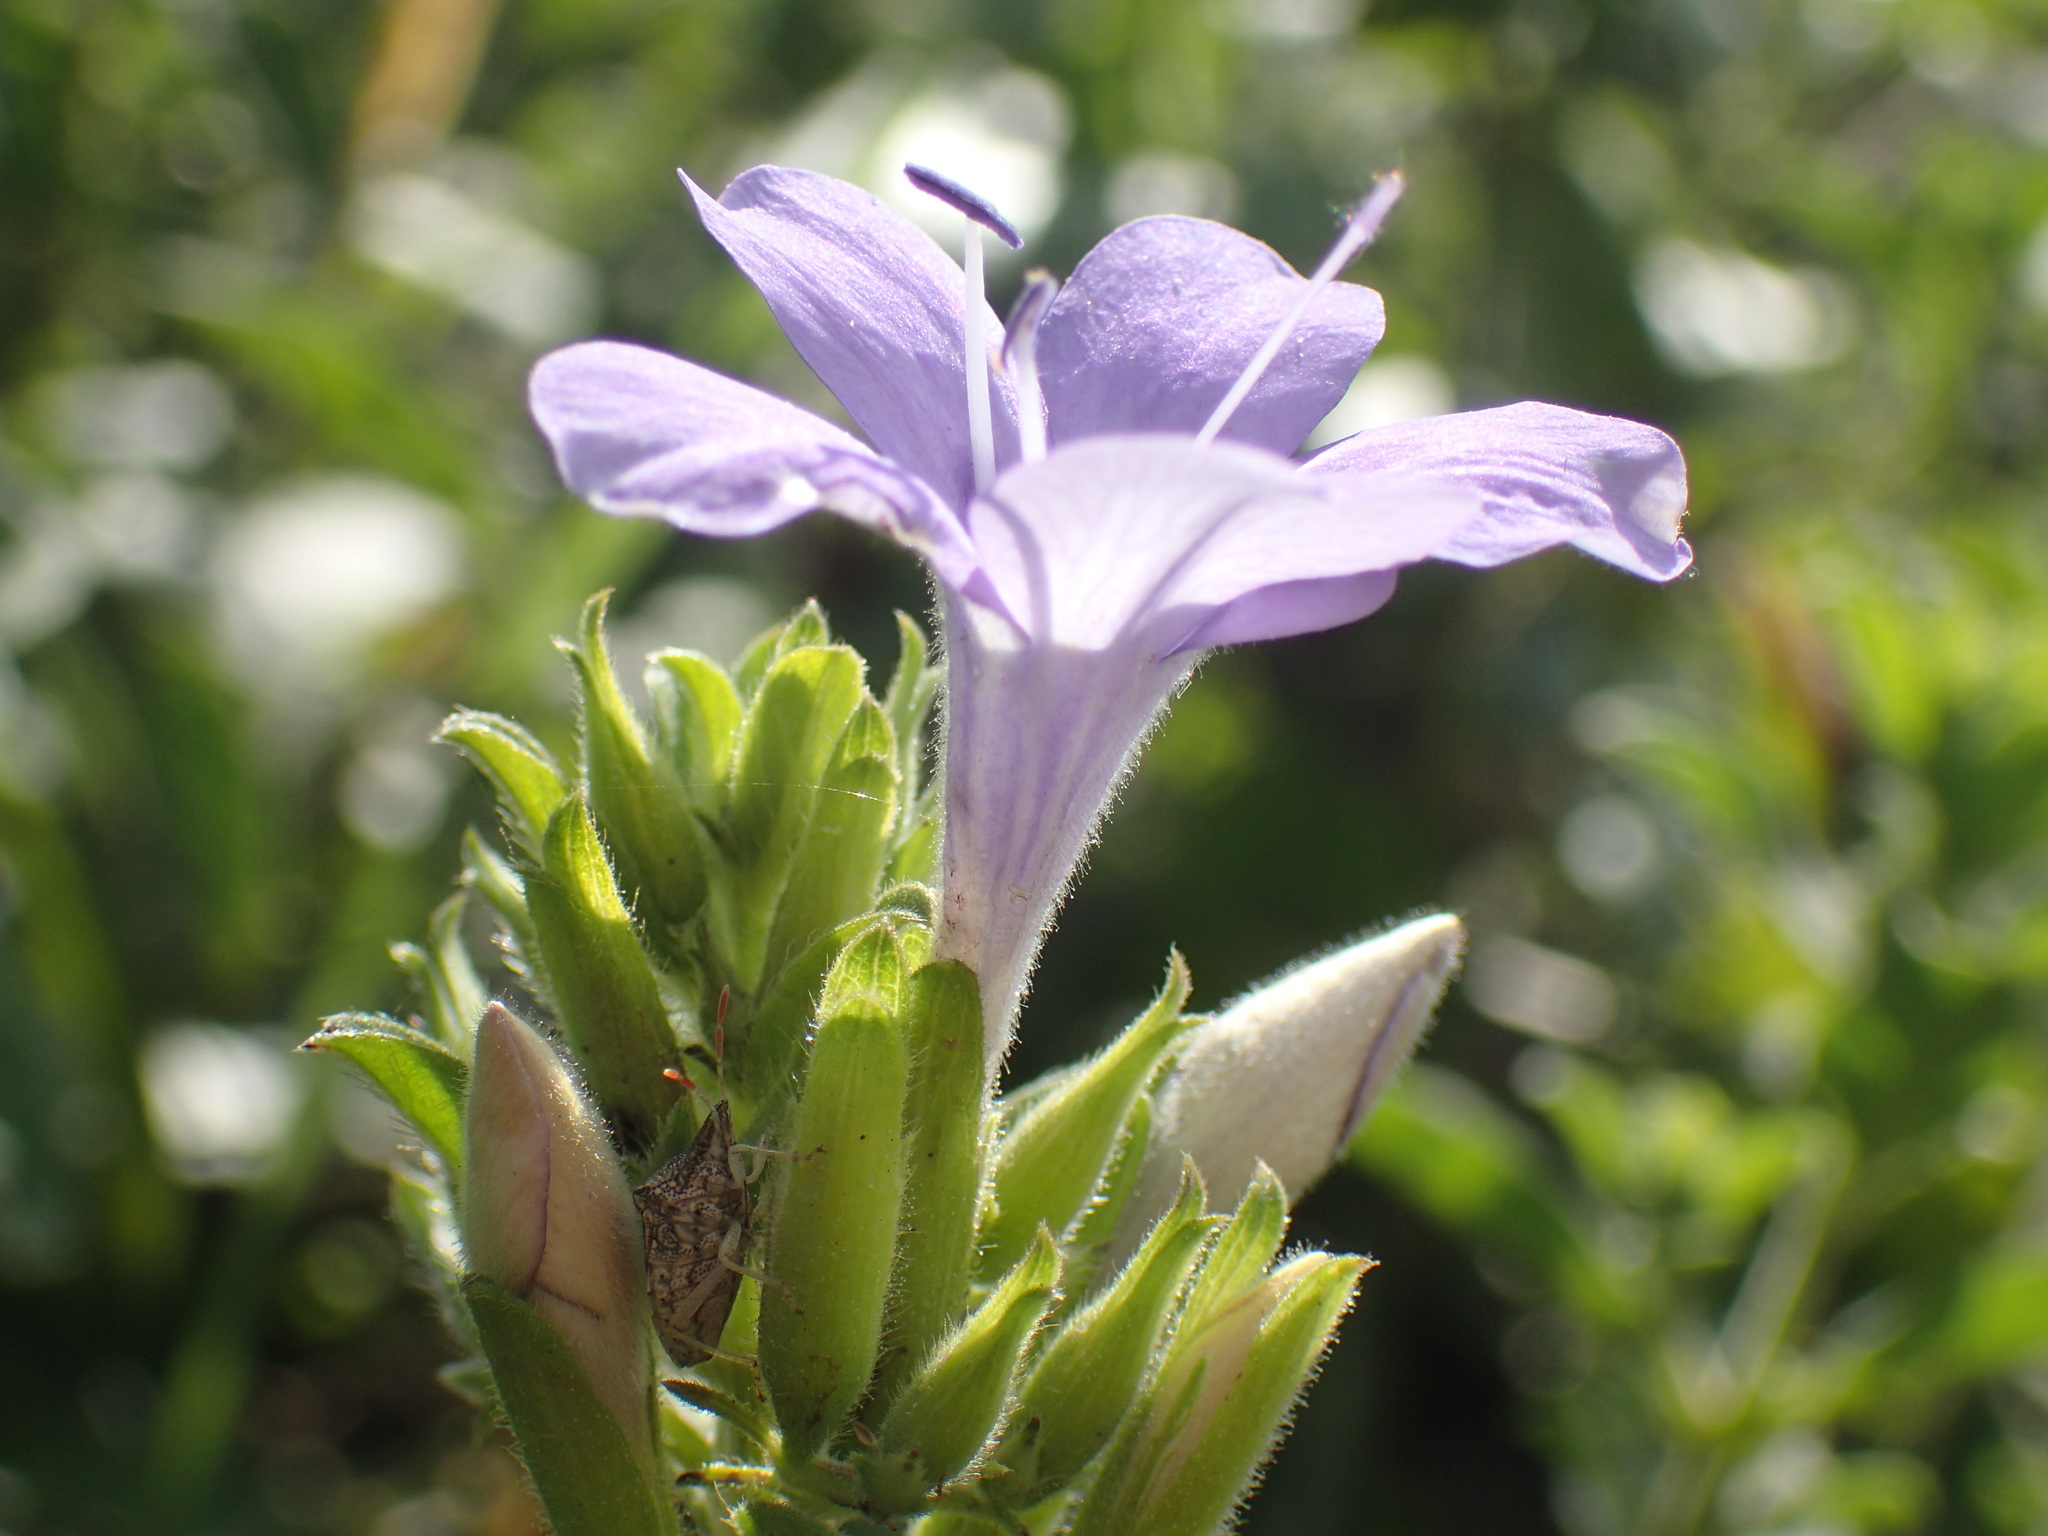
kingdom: Plantae
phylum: Tracheophyta
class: Magnoliopsida
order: Lamiales
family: Acanthaceae
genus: Barleria
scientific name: Barleria obtusa
